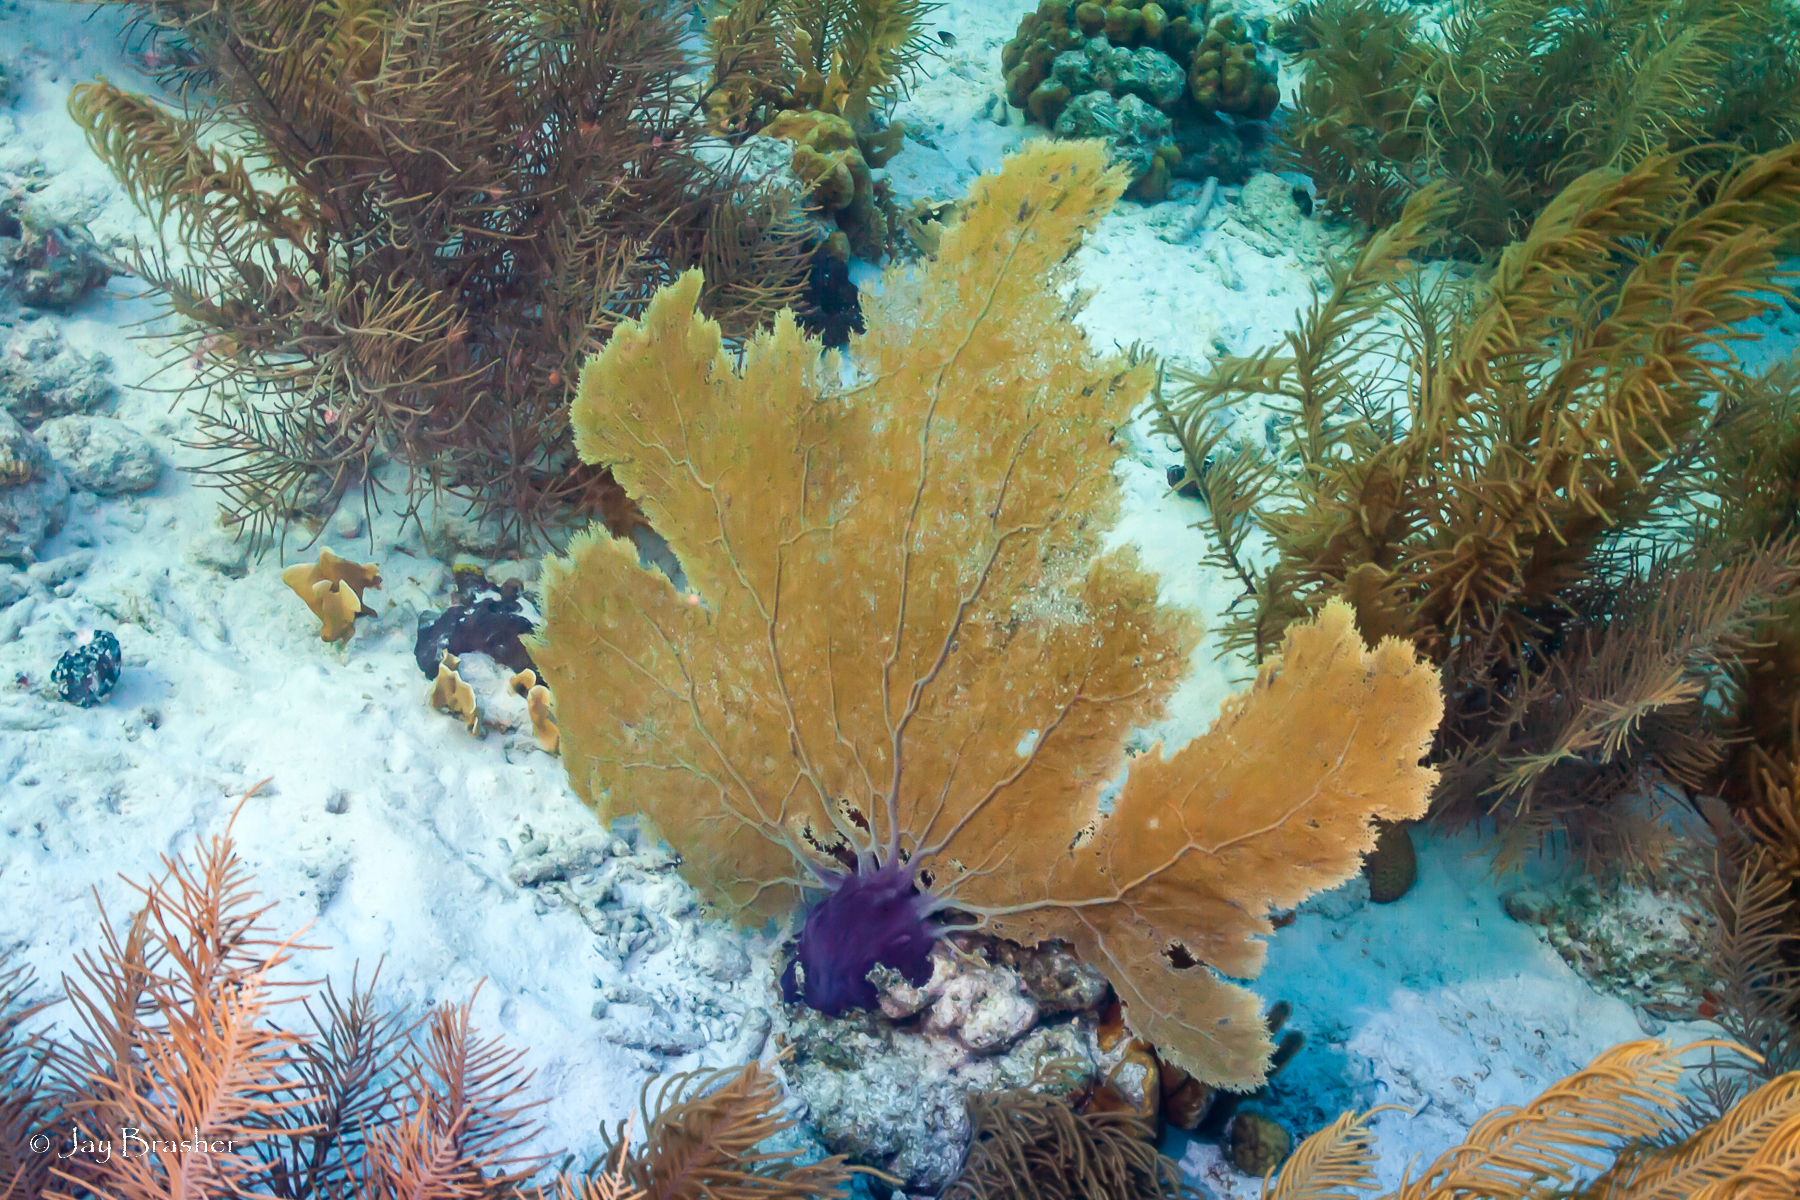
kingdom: Animalia
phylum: Cnidaria
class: Anthozoa
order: Malacalcyonacea
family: Gorgoniidae
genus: Gorgonia
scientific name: Gorgonia ventalina
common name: Common sea fan
